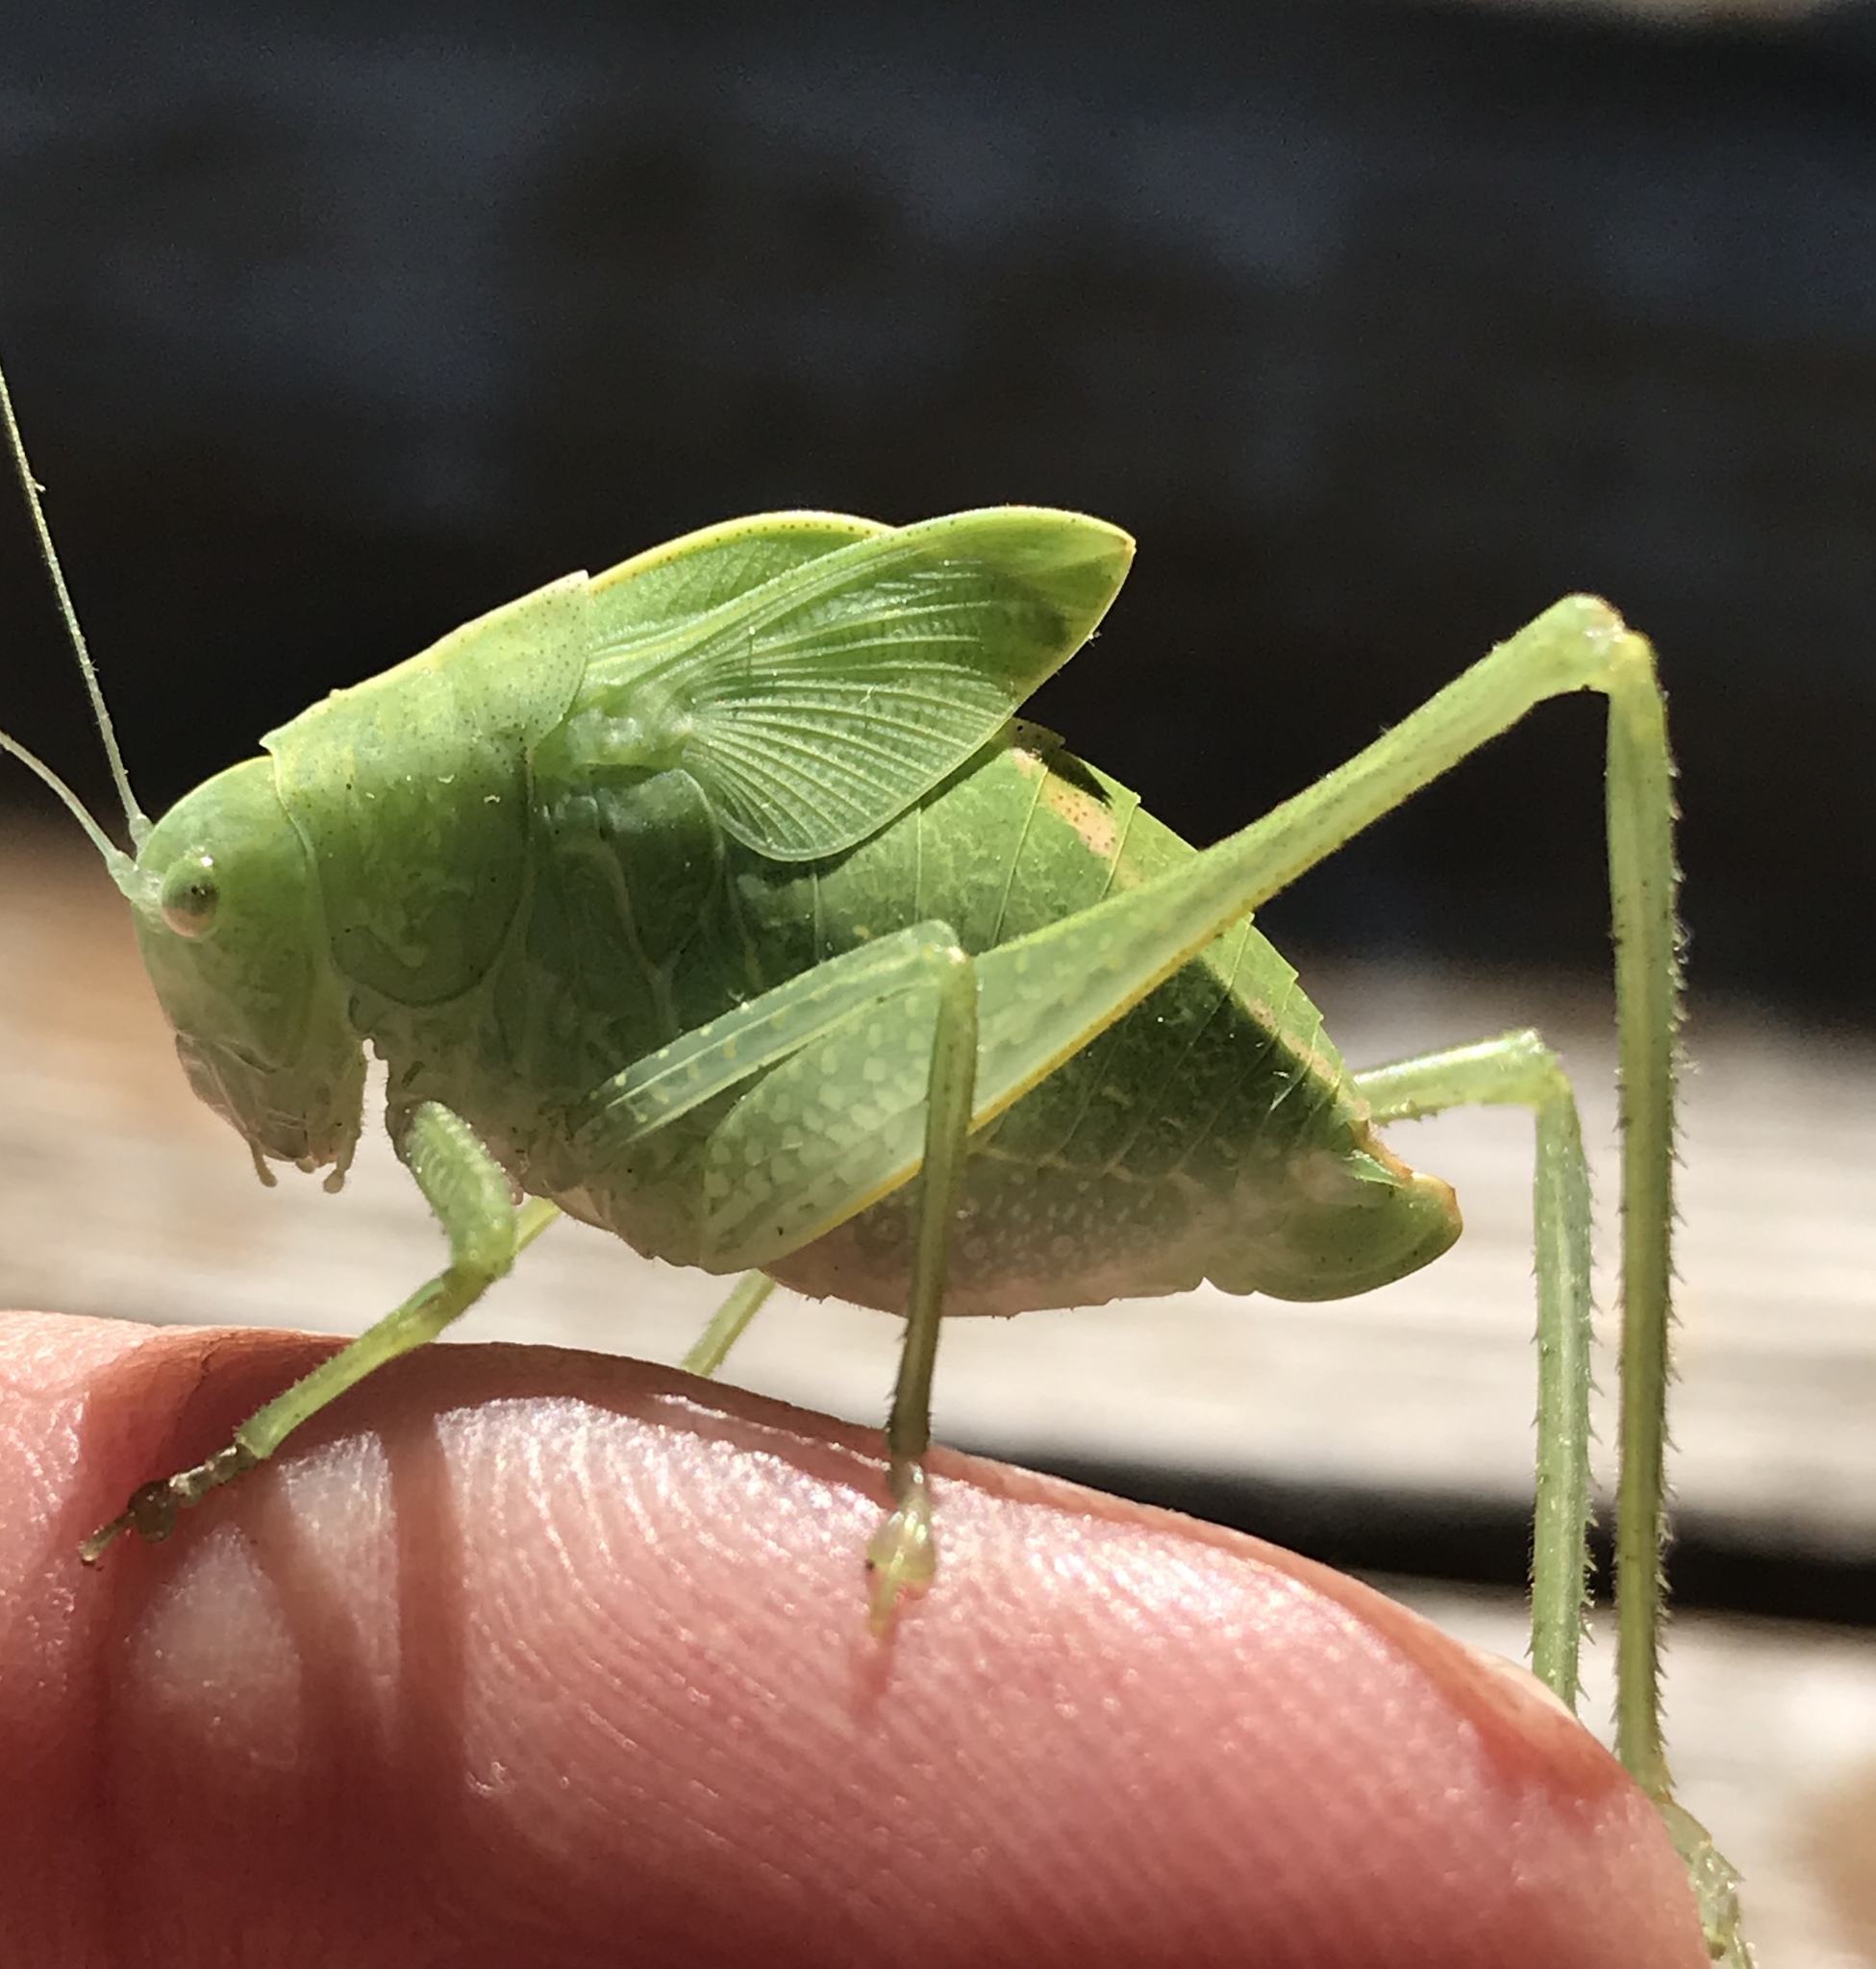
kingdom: Animalia
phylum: Arthropoda
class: Insecta
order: Orthoptera
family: Tettigoniidae
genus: Microcentrum
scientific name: Microcentrum rhombifolium
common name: Broad-winged katydid
